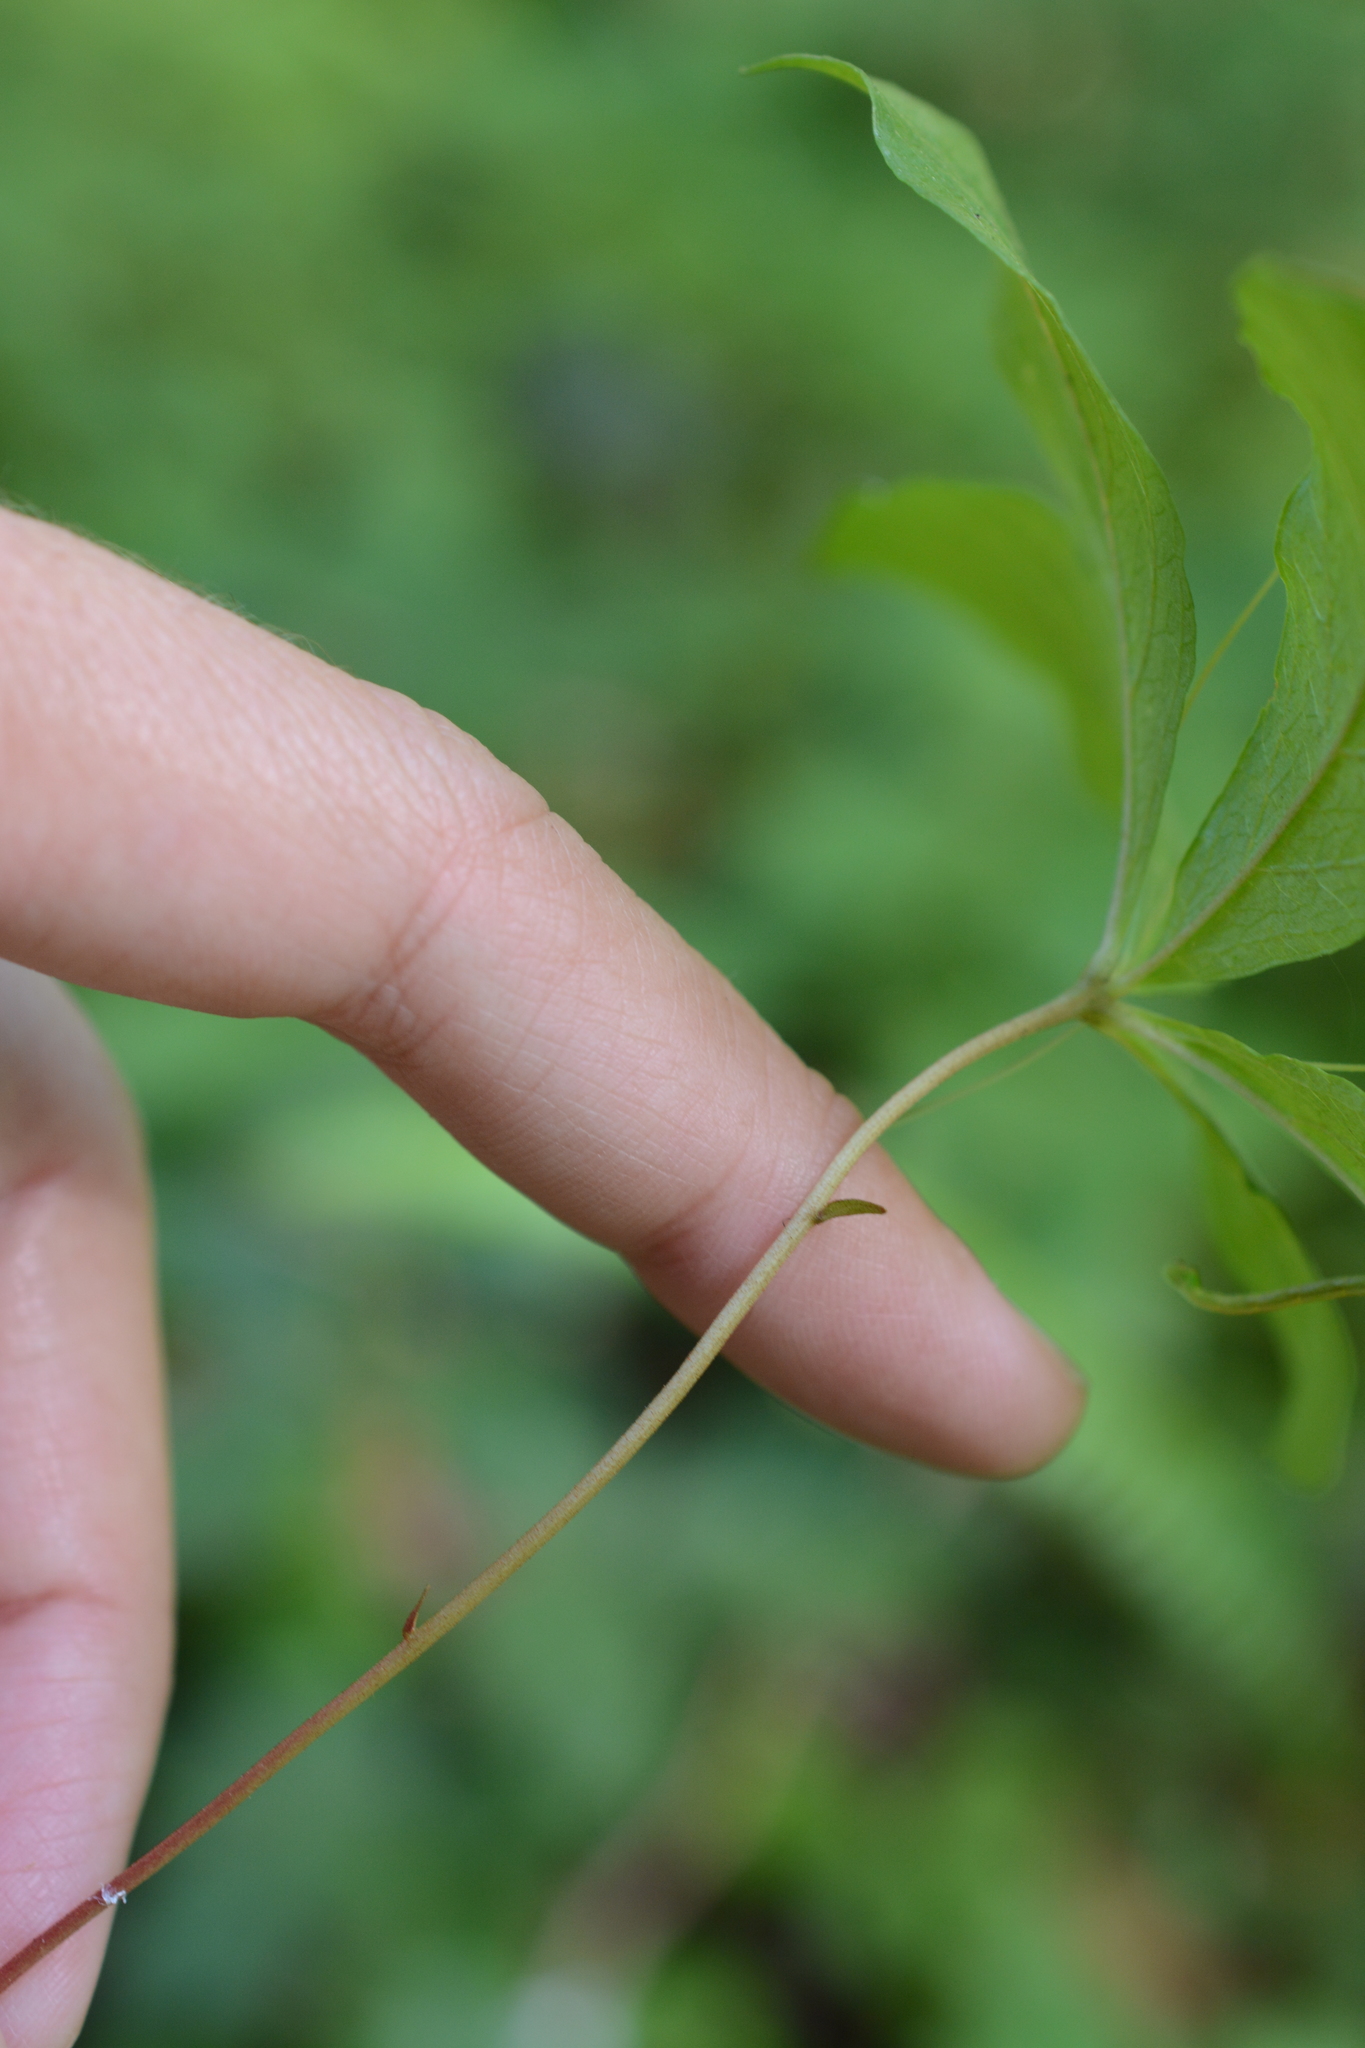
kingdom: Plantae
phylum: Tracheophyta
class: Magnoliopsida
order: Ericales
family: Primulaceae
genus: Lysimachia
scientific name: Lysimachia latifolia
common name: Pacific starflower
